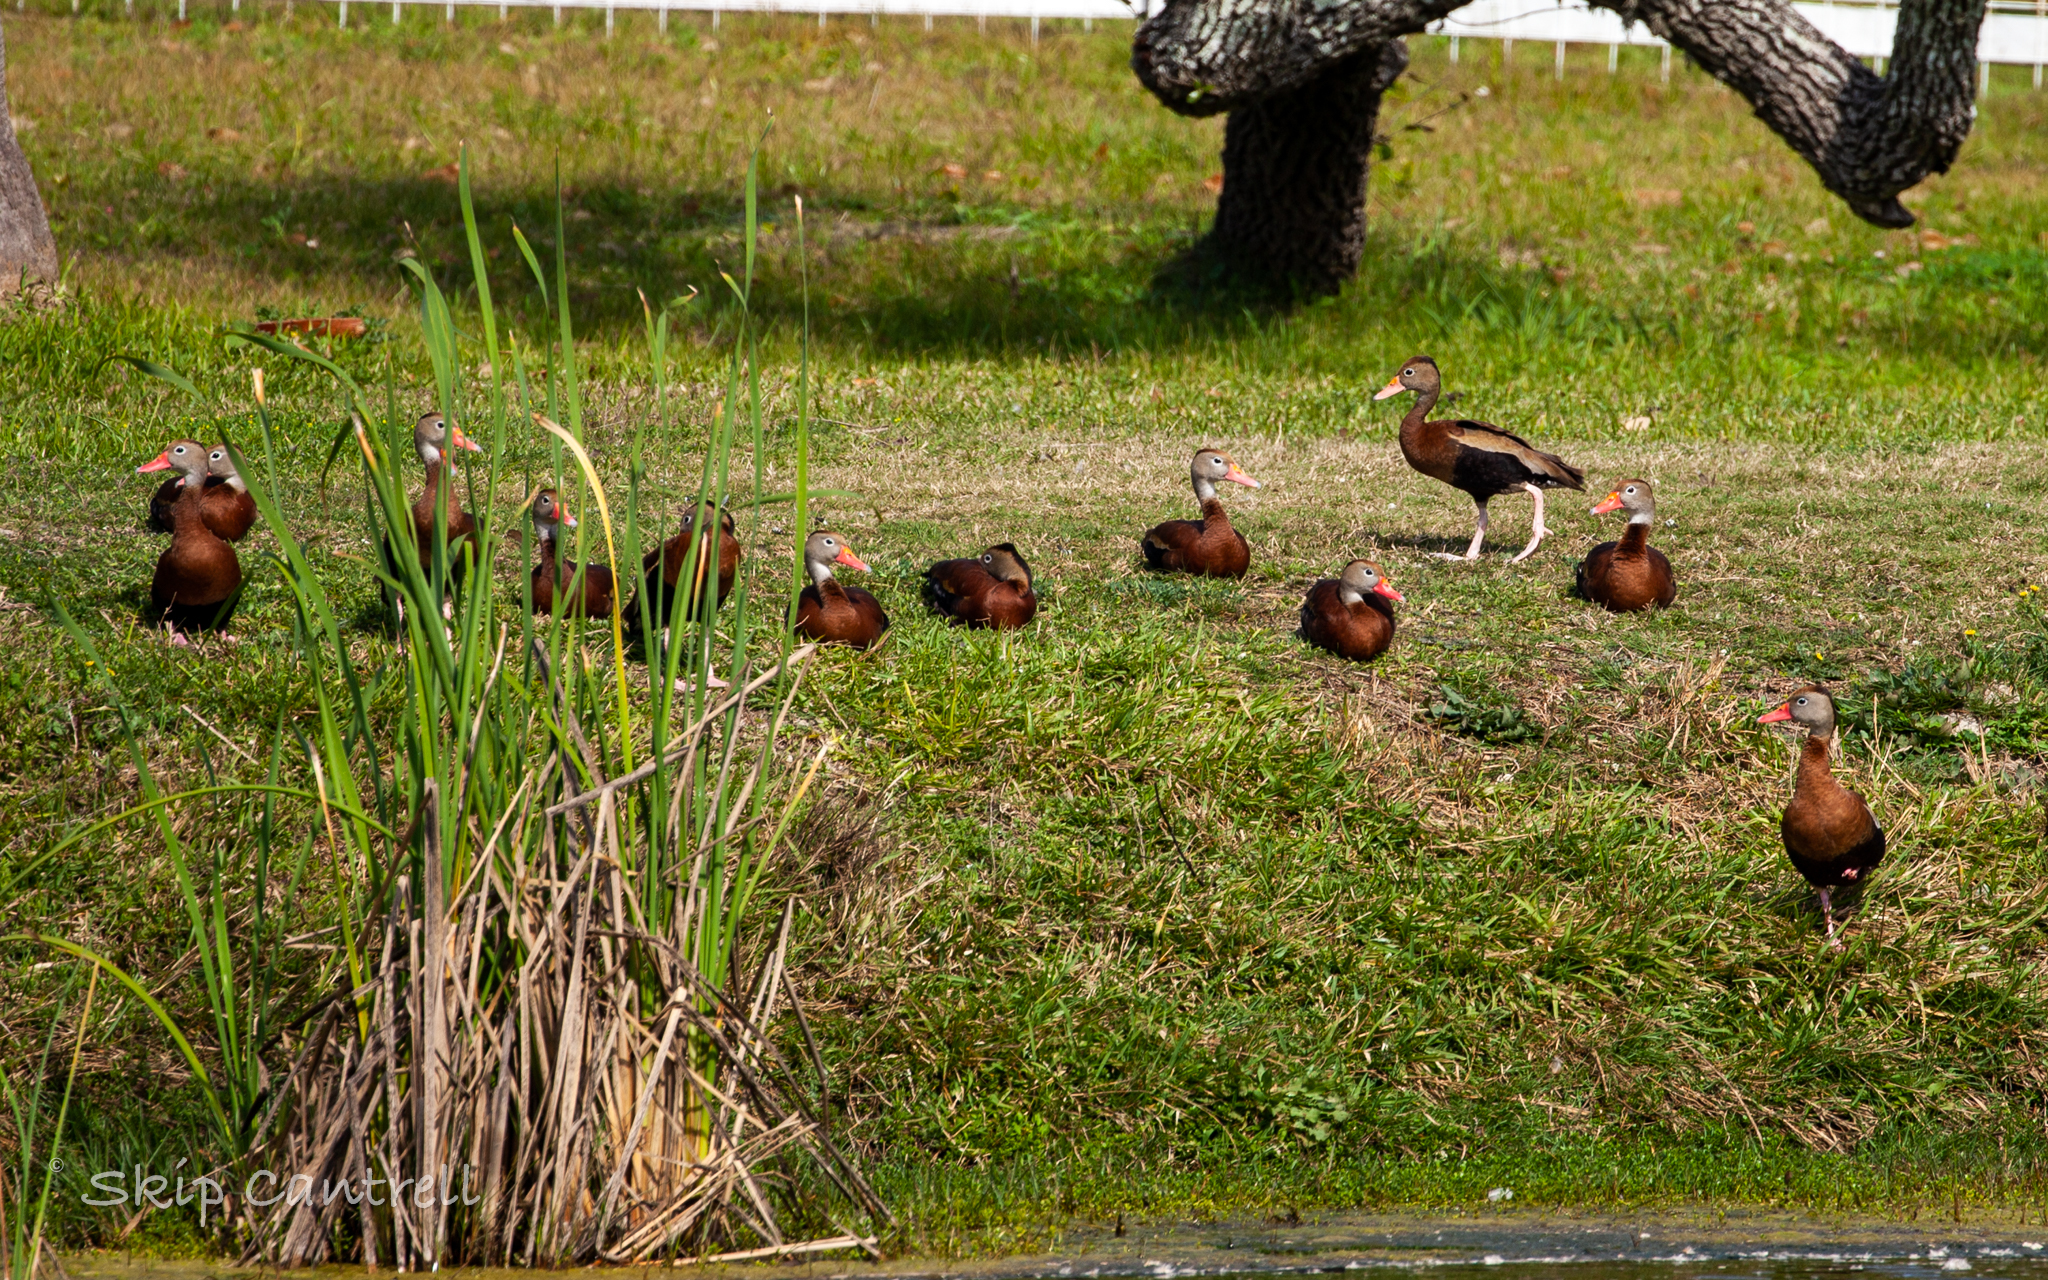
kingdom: Animalia
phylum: Chordata
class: Aves
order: Anseriformes
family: Anatidae
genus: Dendrocygna
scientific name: Dendrocygna autumnalis
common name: Black-bellied whistling duck
